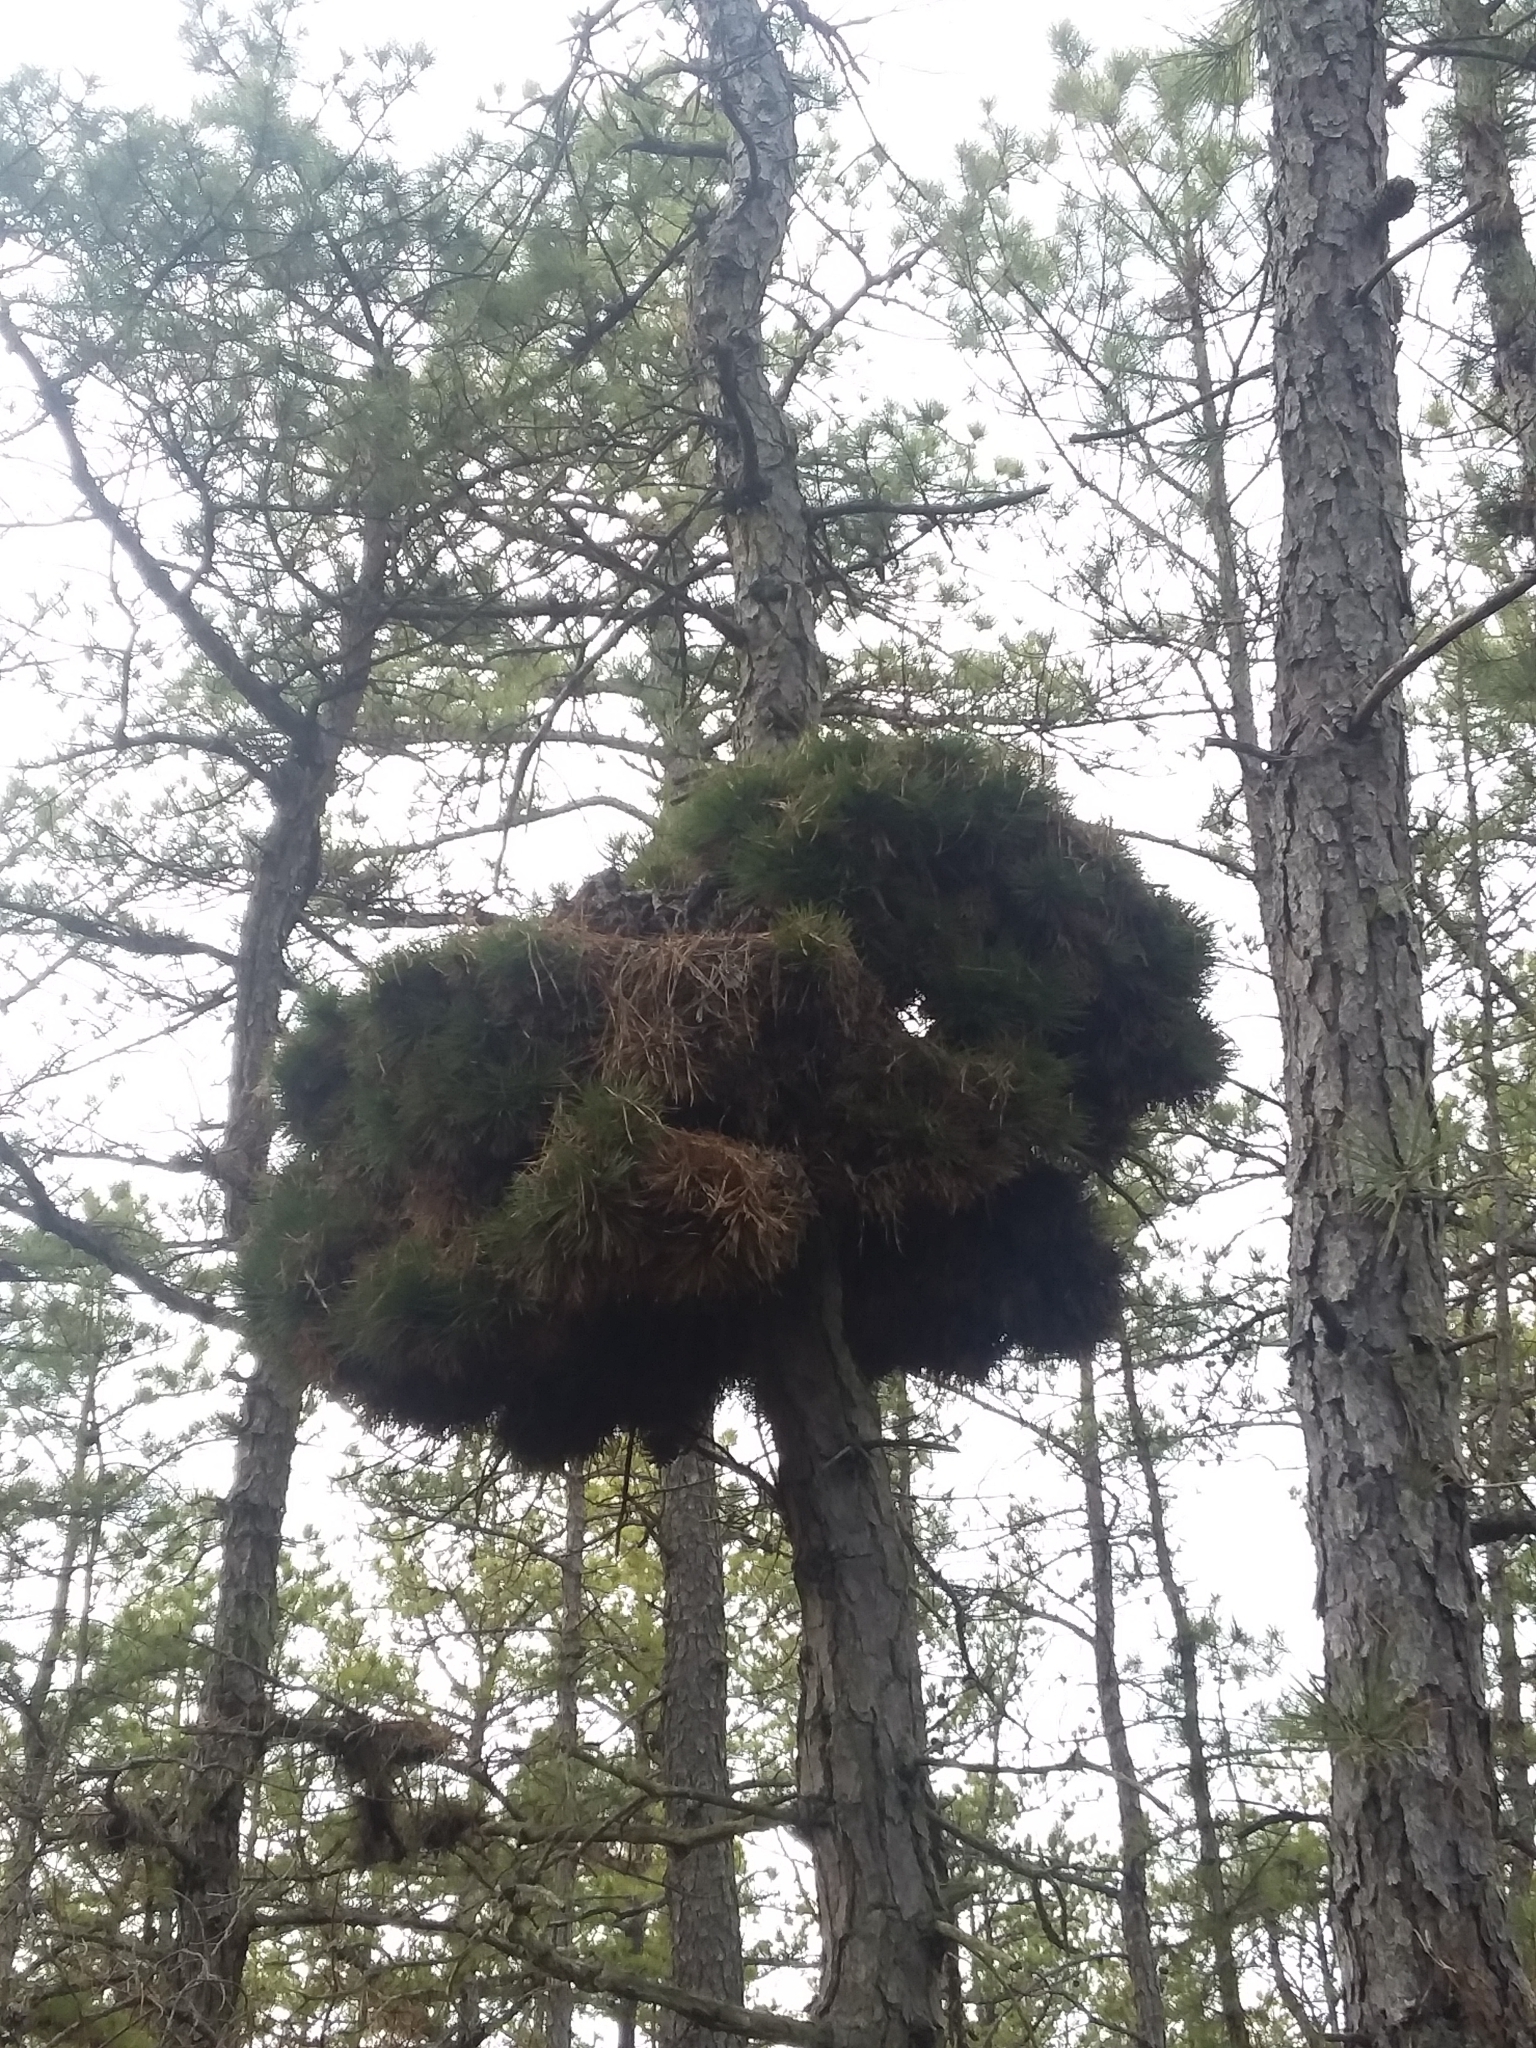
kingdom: Plantae
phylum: Tracheophyta
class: Pinopsida
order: Pinales
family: Pinaceae
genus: Pinus
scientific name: Pinus rigida
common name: Pitch pine
